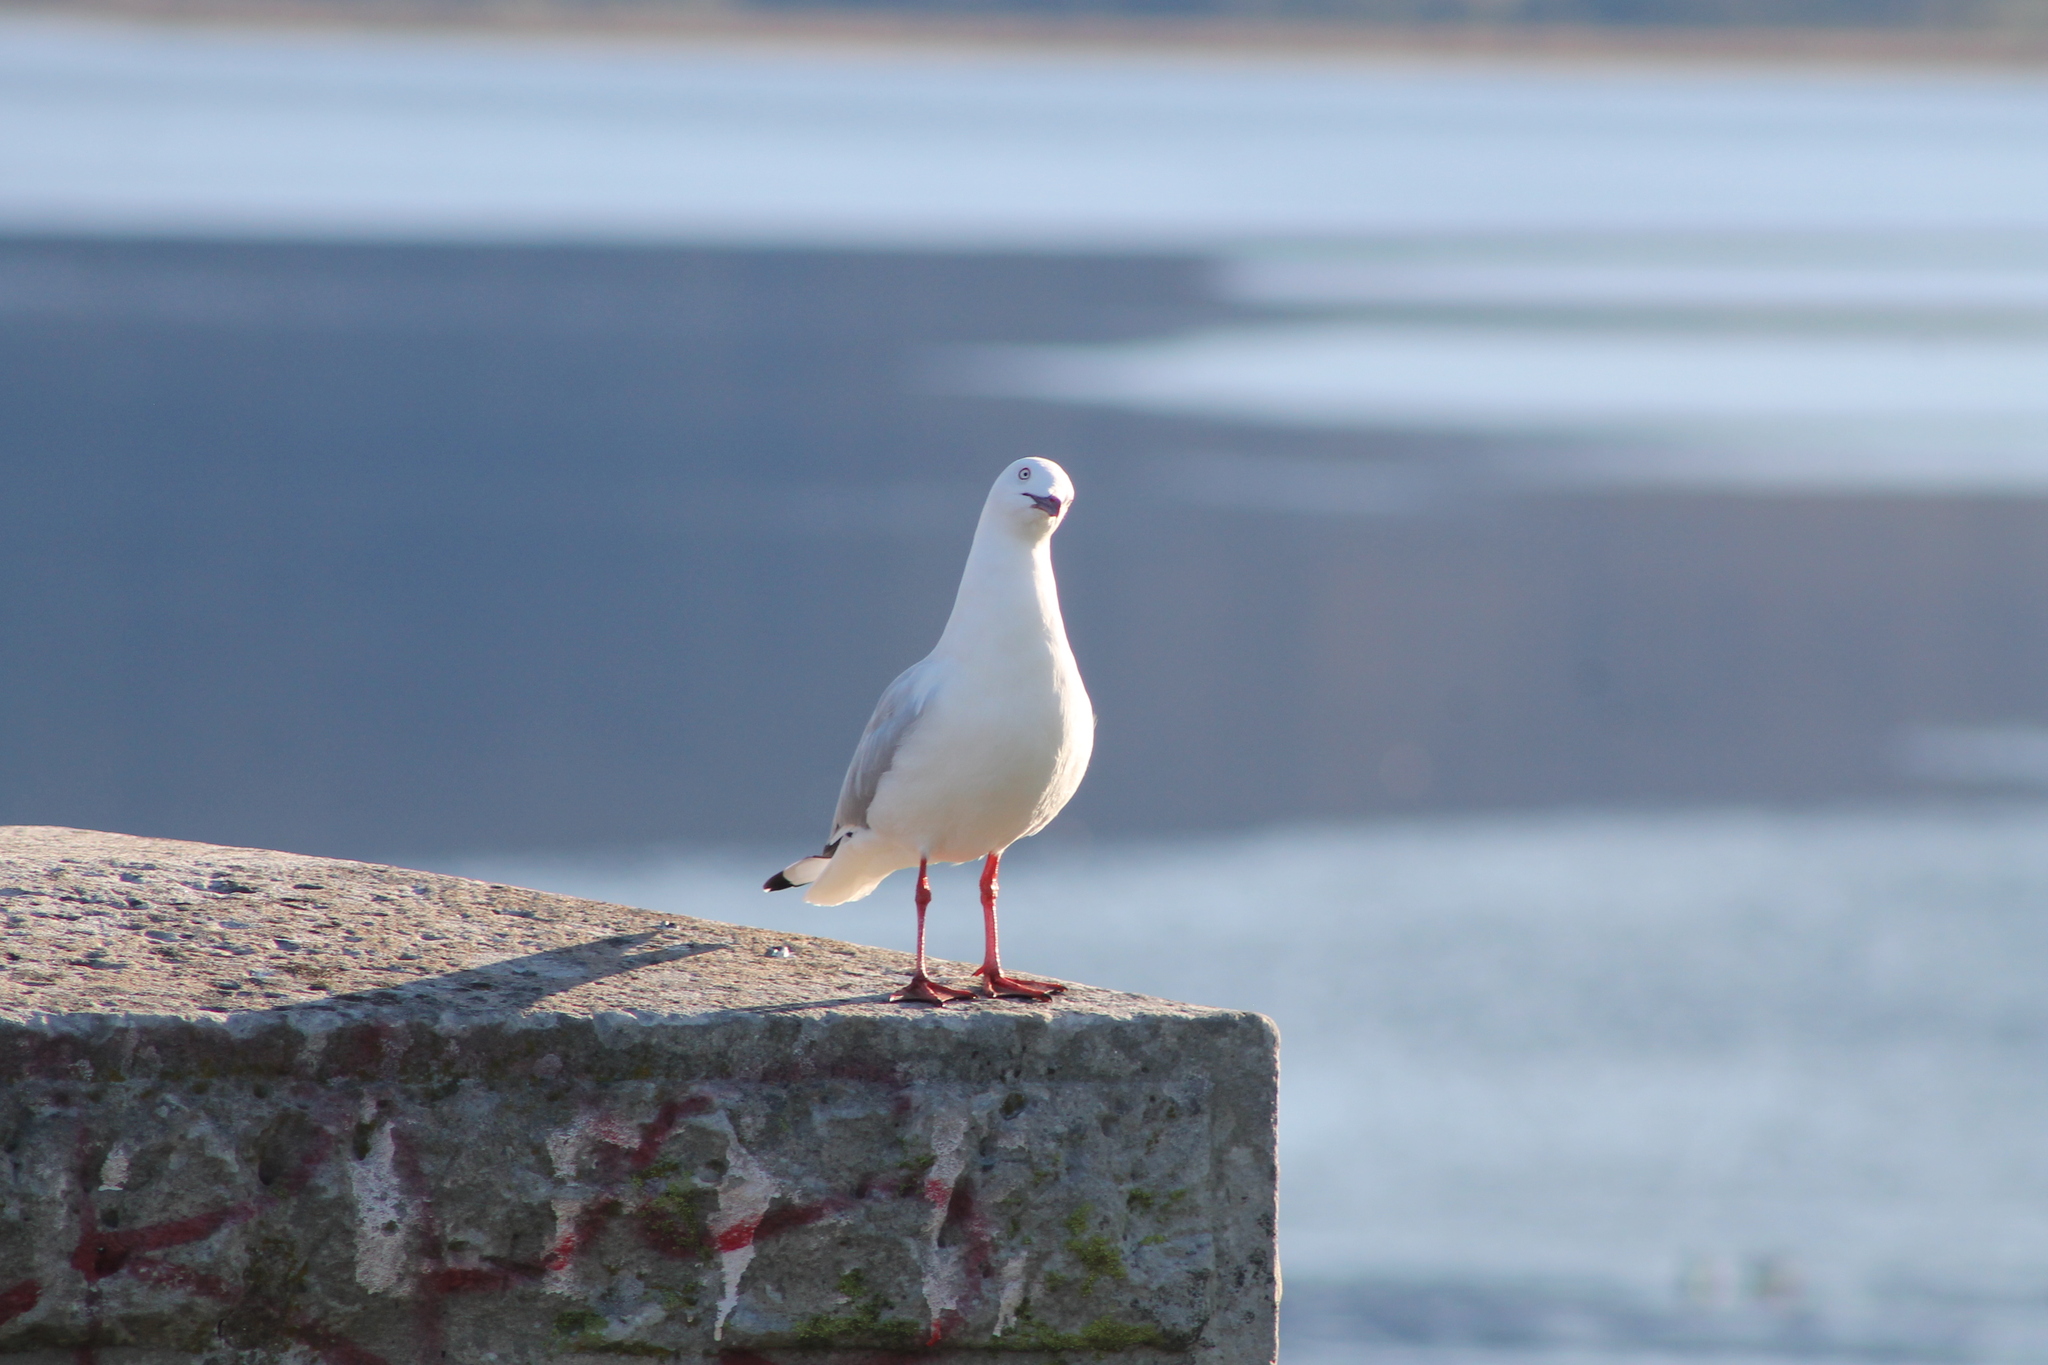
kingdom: Animalia
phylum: Chordata
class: Aves
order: Charadriiformes
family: Laridae
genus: Chroicocephalus
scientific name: Chroicocephalus novaehollandiae
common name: Silver gull
